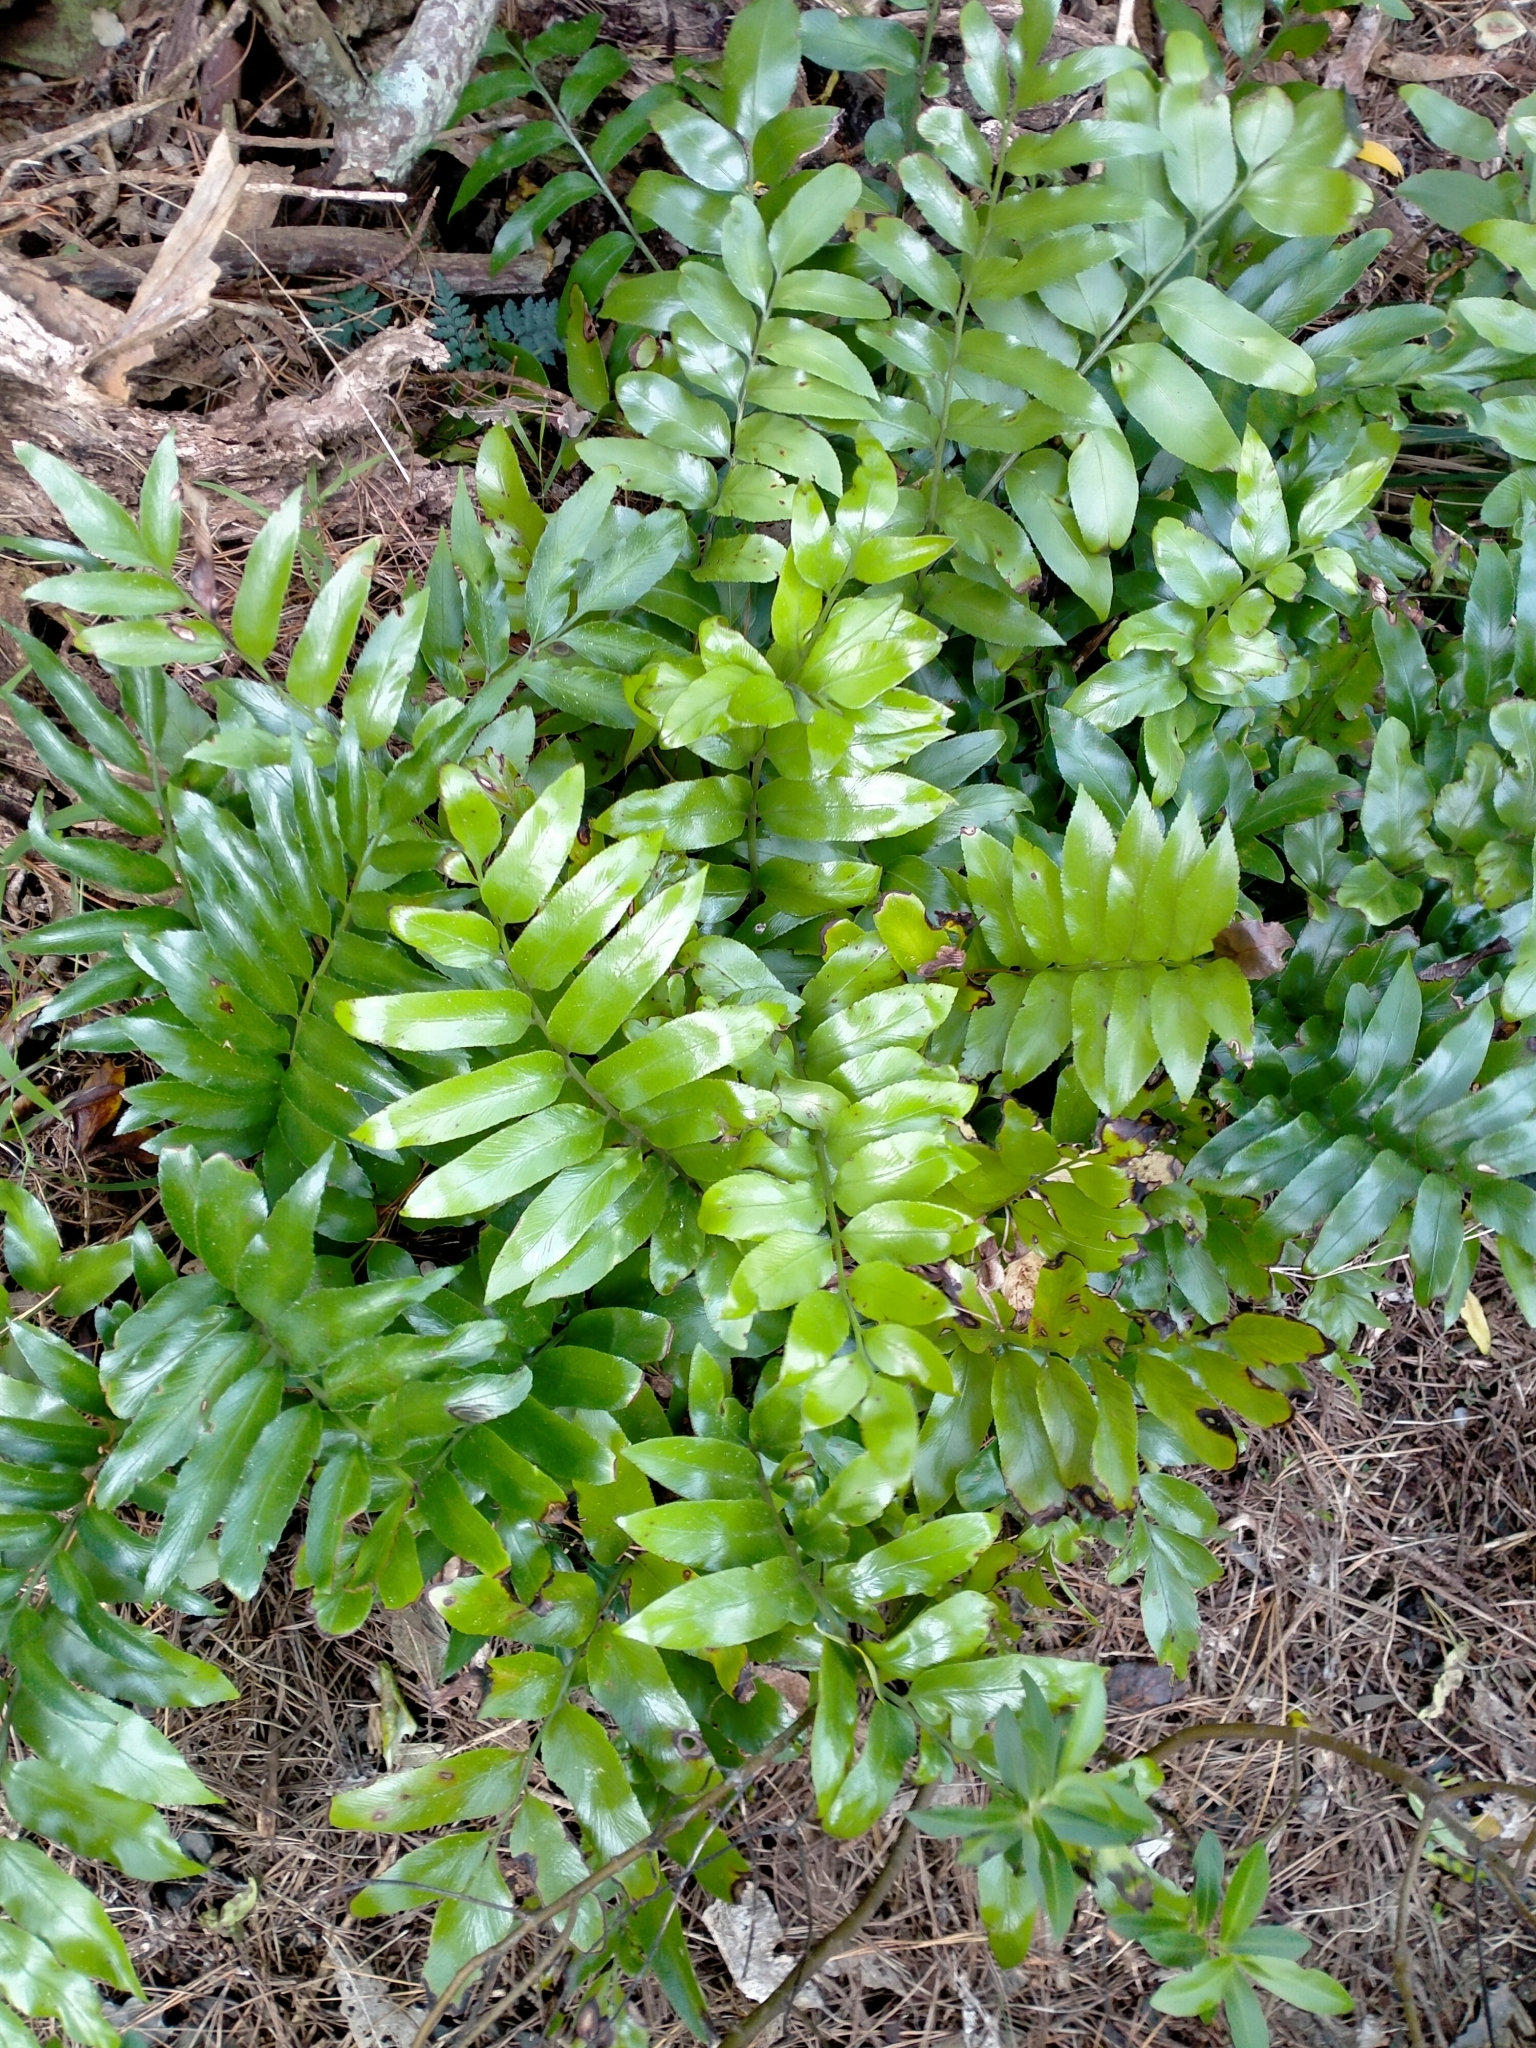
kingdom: Plantae
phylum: Tracheophyta
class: Polypodiopsida
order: Polypodiales
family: Aspleniaceae
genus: Asplenium
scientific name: Asplenium oblongifolium
